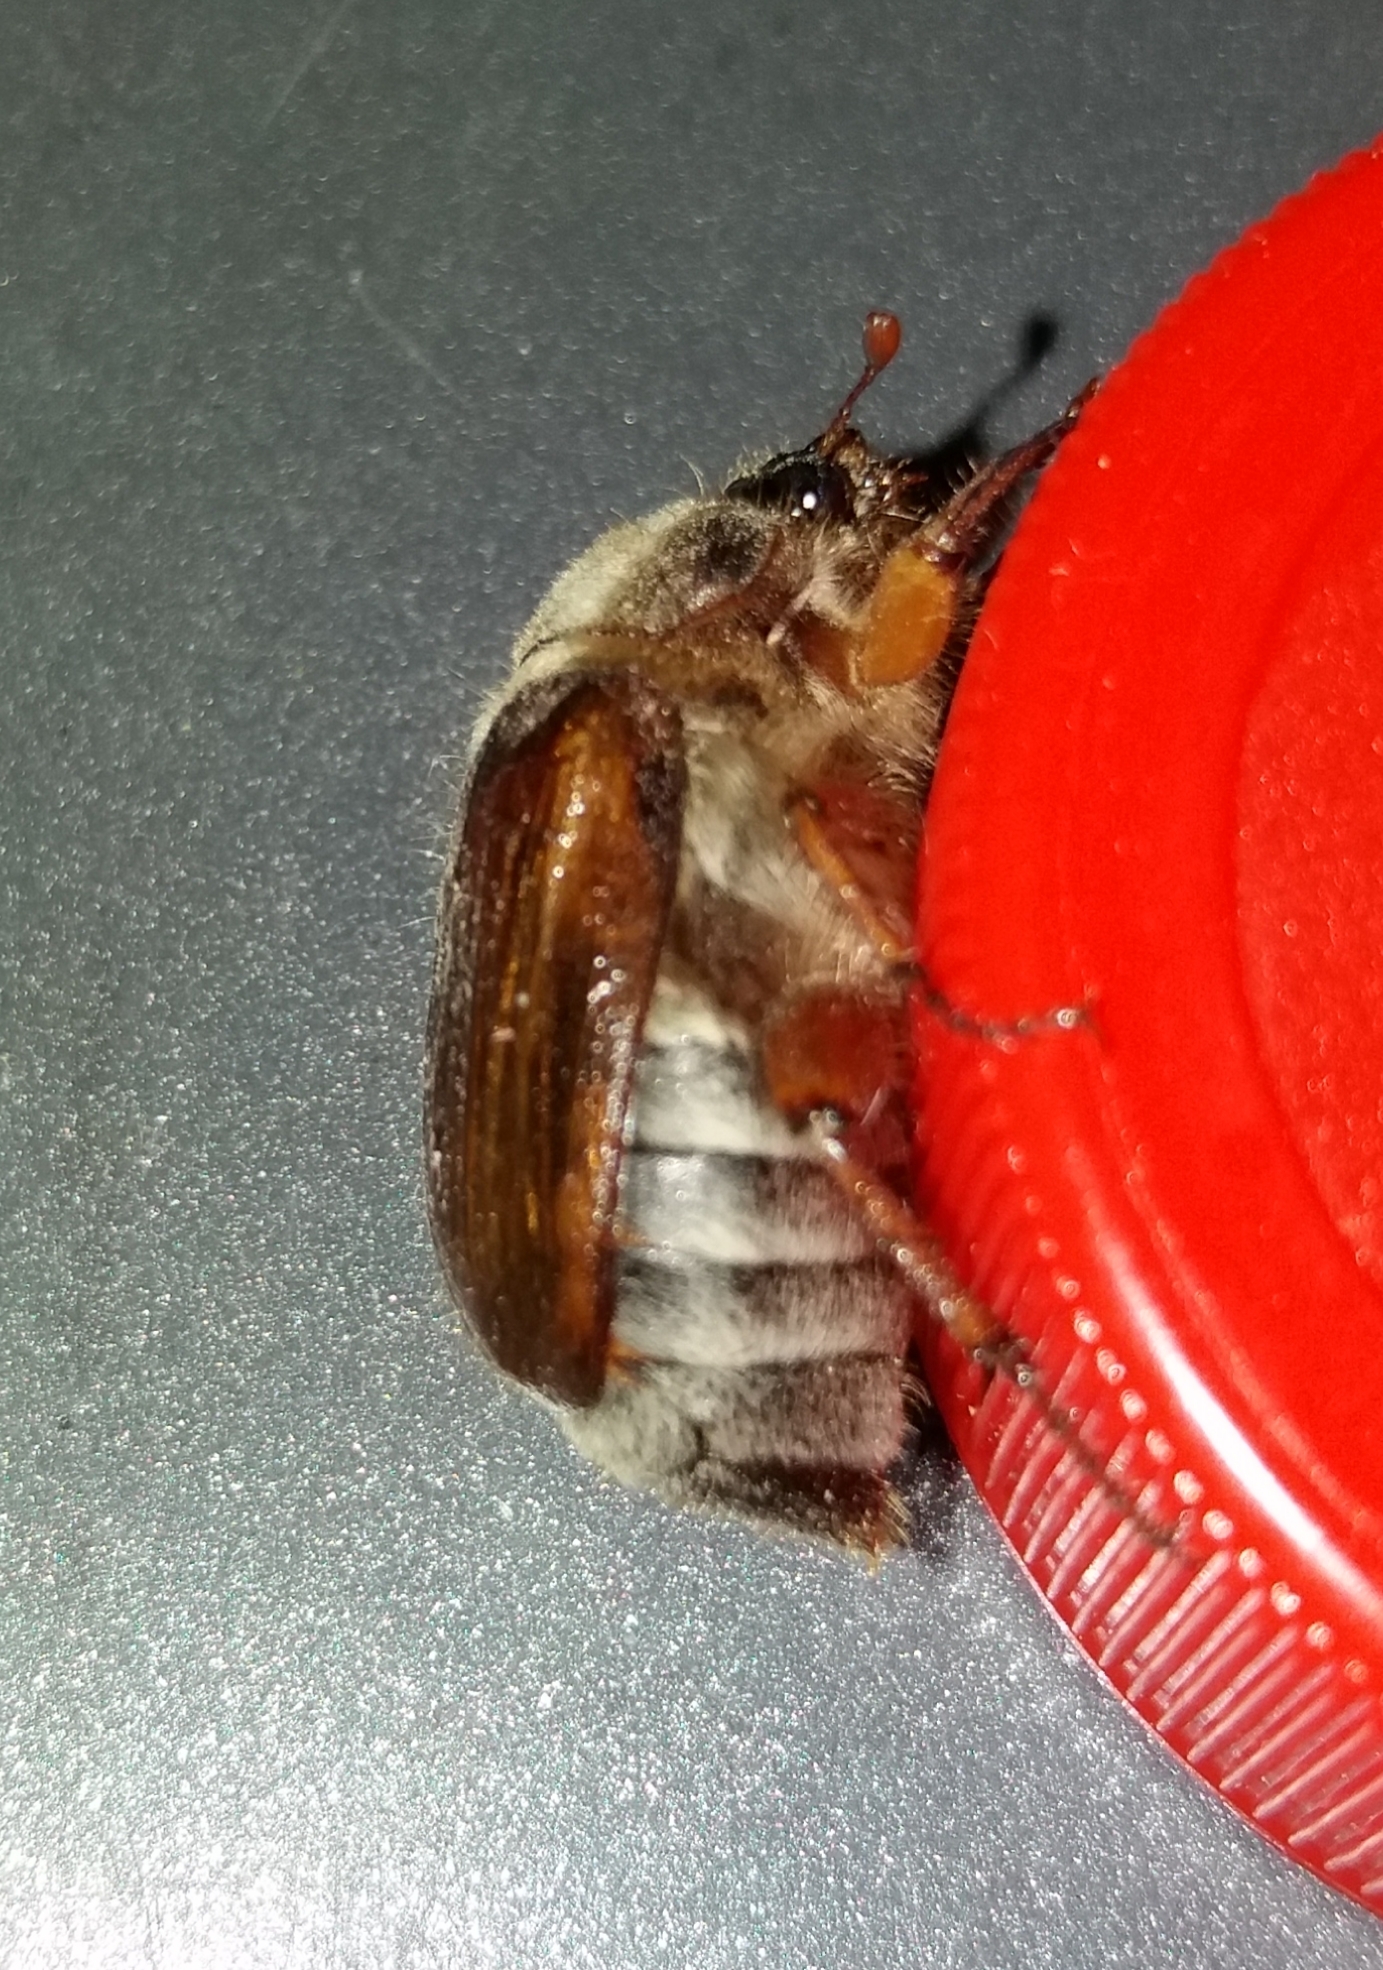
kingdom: Animalia
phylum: Arthropoda
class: Insecta
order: Coleoptera
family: Scarabaeidae
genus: Amphimallon
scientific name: Amphimallon solstitiale
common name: Summer chafer
